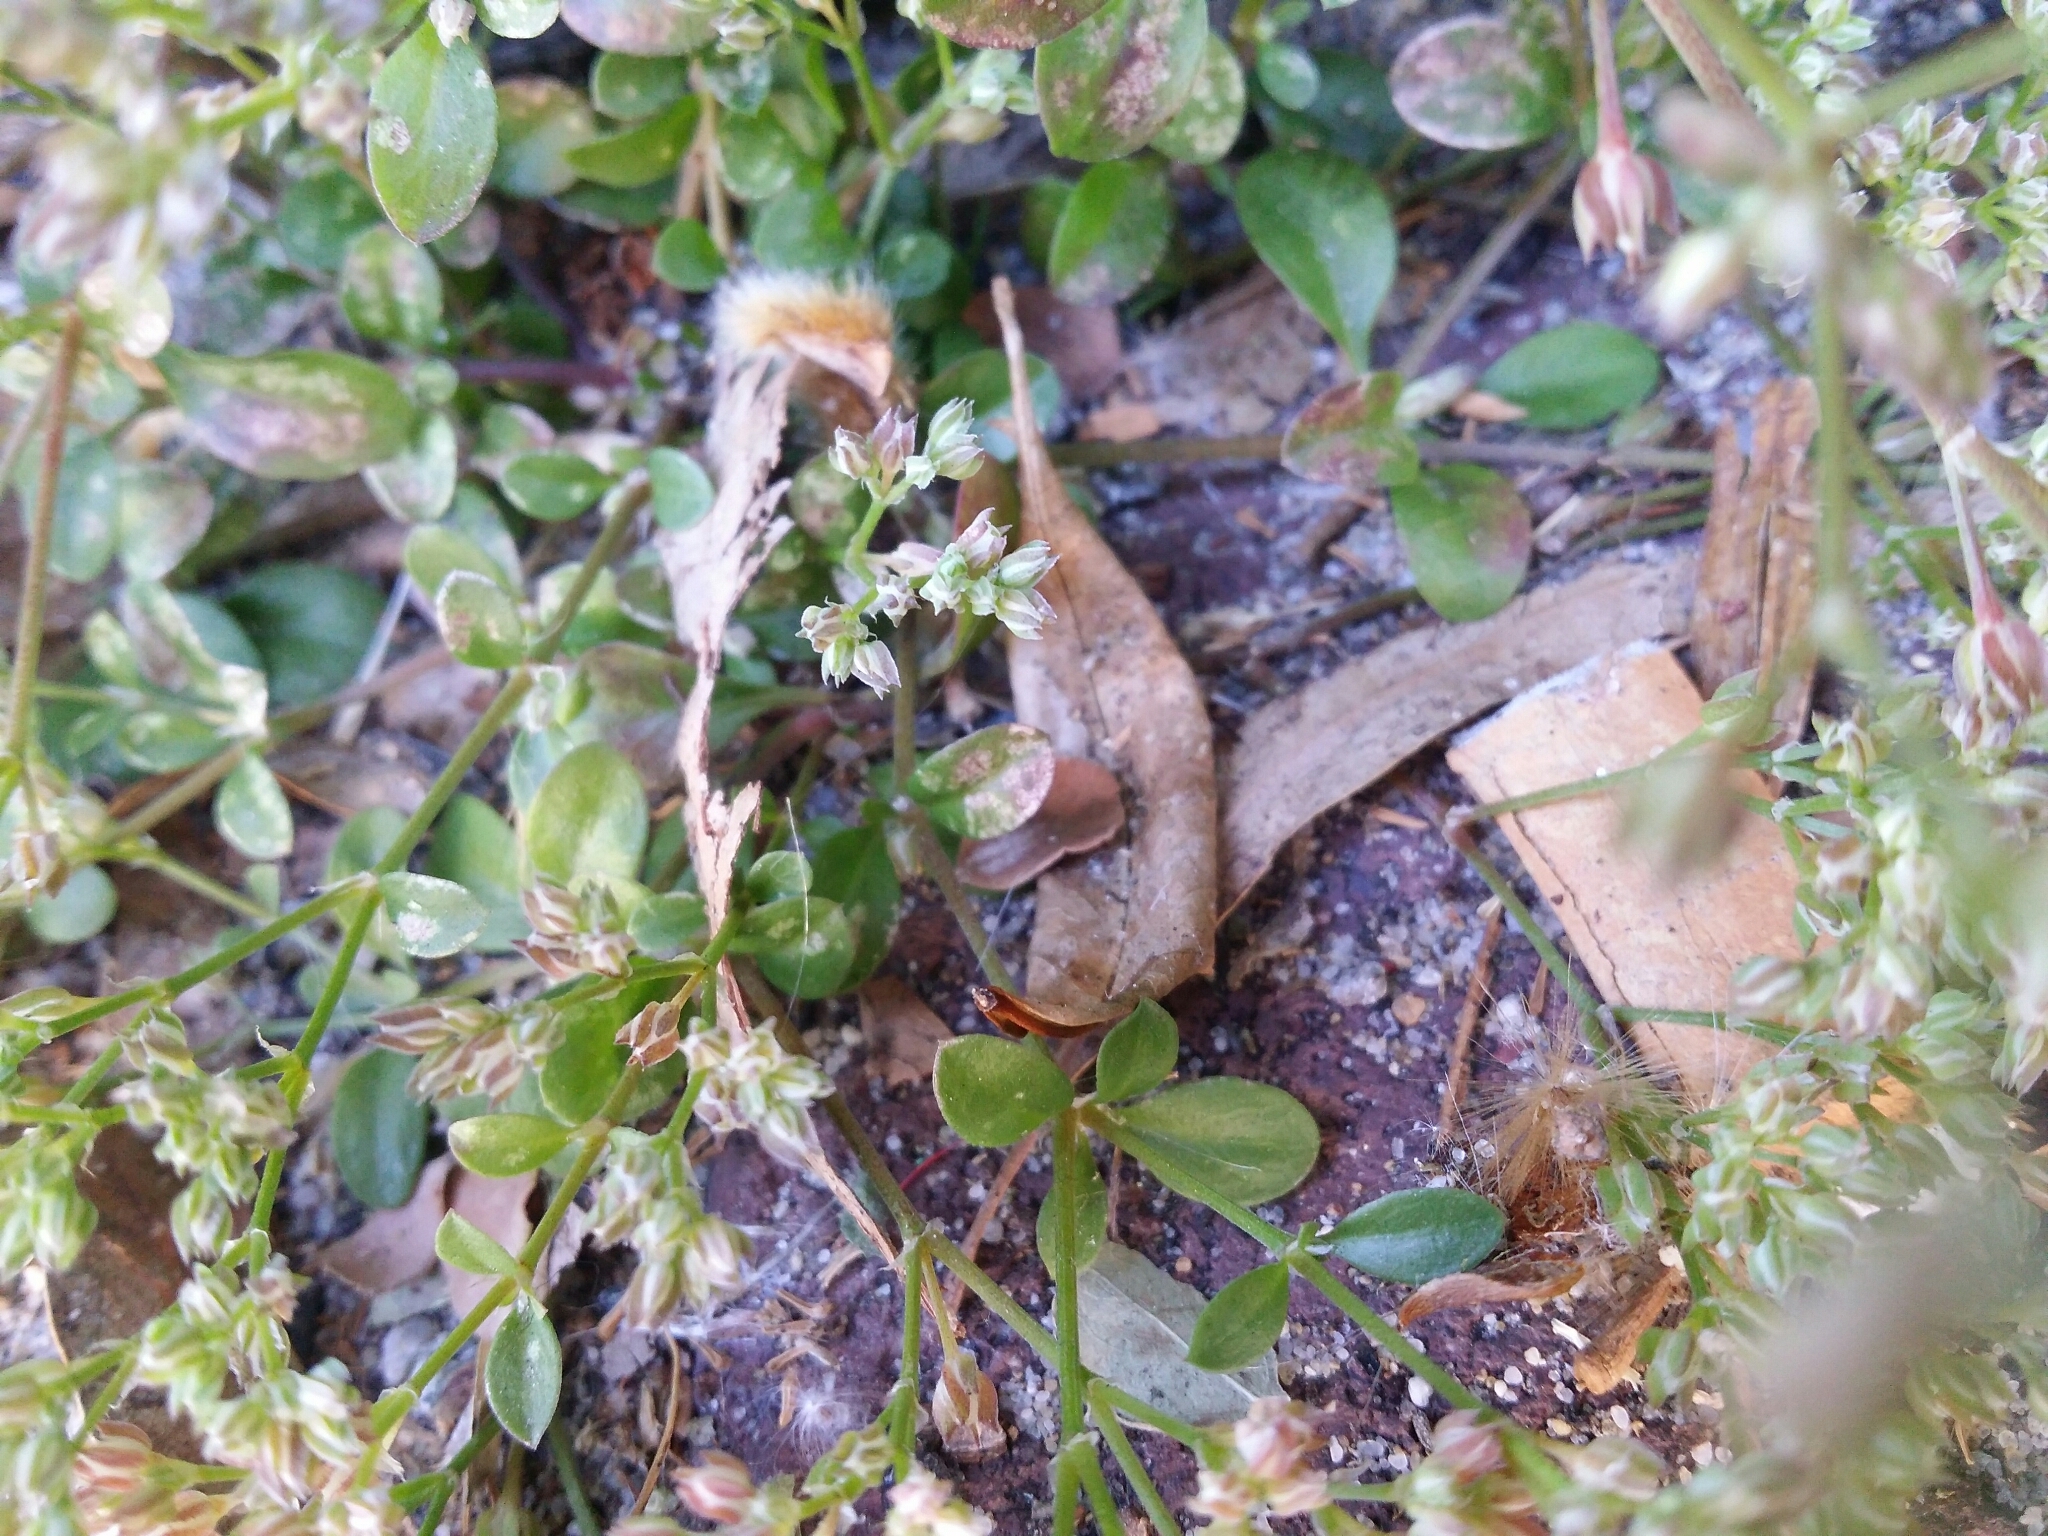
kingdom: Plantae
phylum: Tracheophyta
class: Magnoliopsida
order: Caryophyllales
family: Caryophyllaceae
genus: Polycarpon
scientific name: Polycarpon tetraphyllum
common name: Four-leaved all-seed
